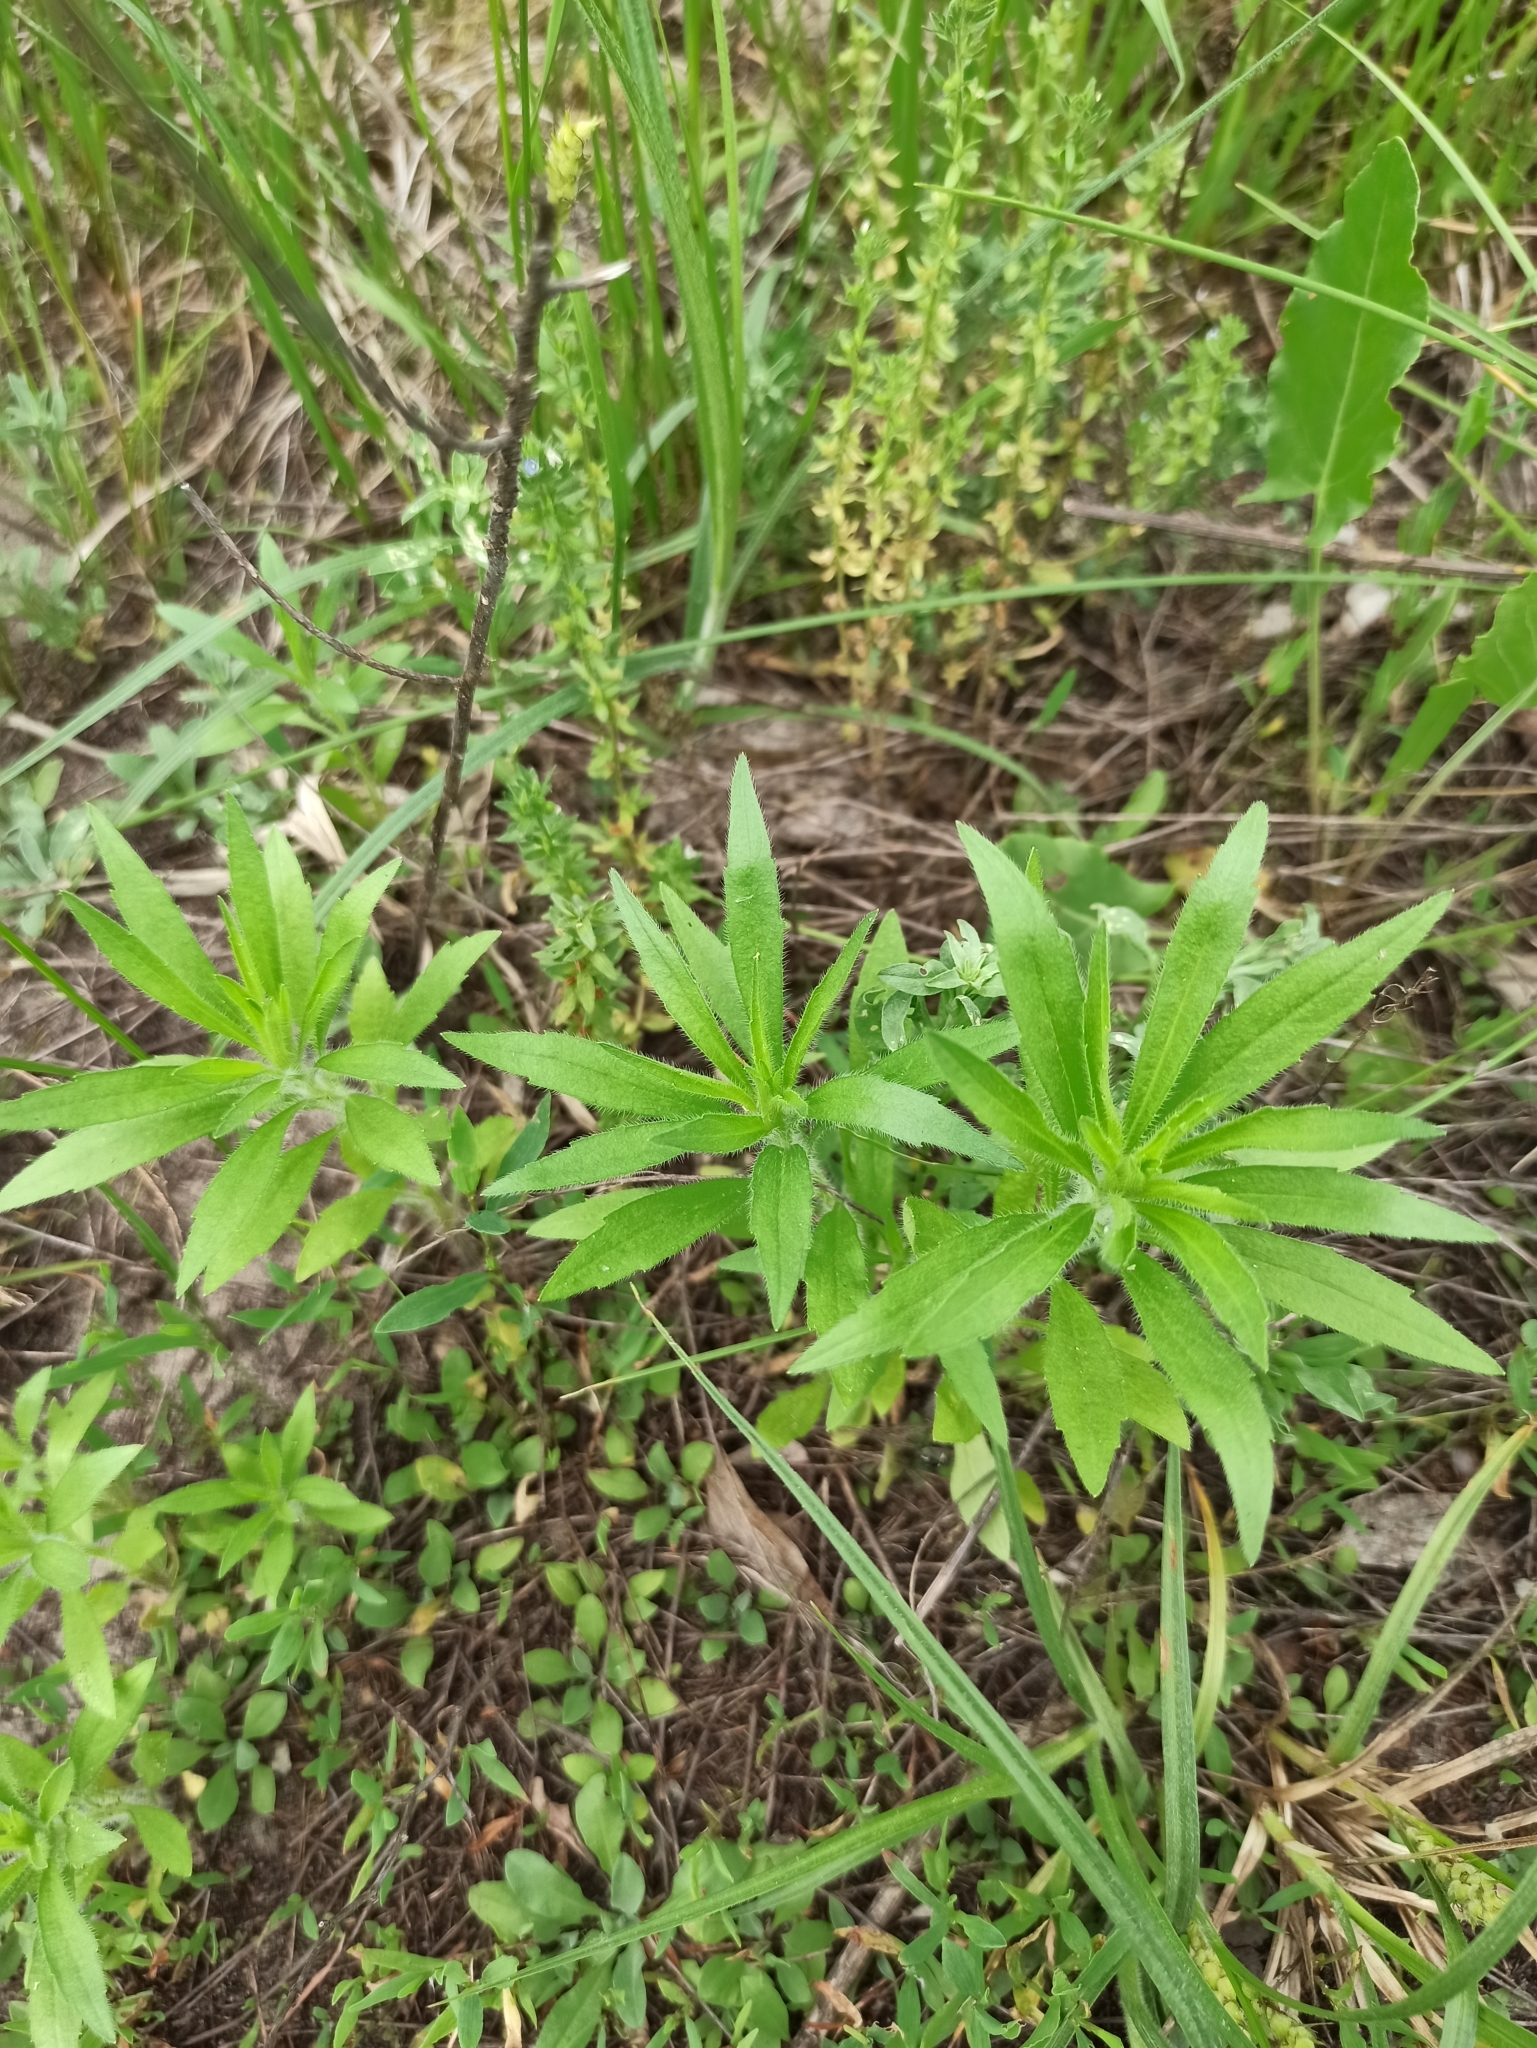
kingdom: Plantae
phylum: Tracheophyta
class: Magnoliopsida
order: Asterales
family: Asteraceae
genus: Erigeron
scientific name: Erigeron canadensis
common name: Canadian fleabane
